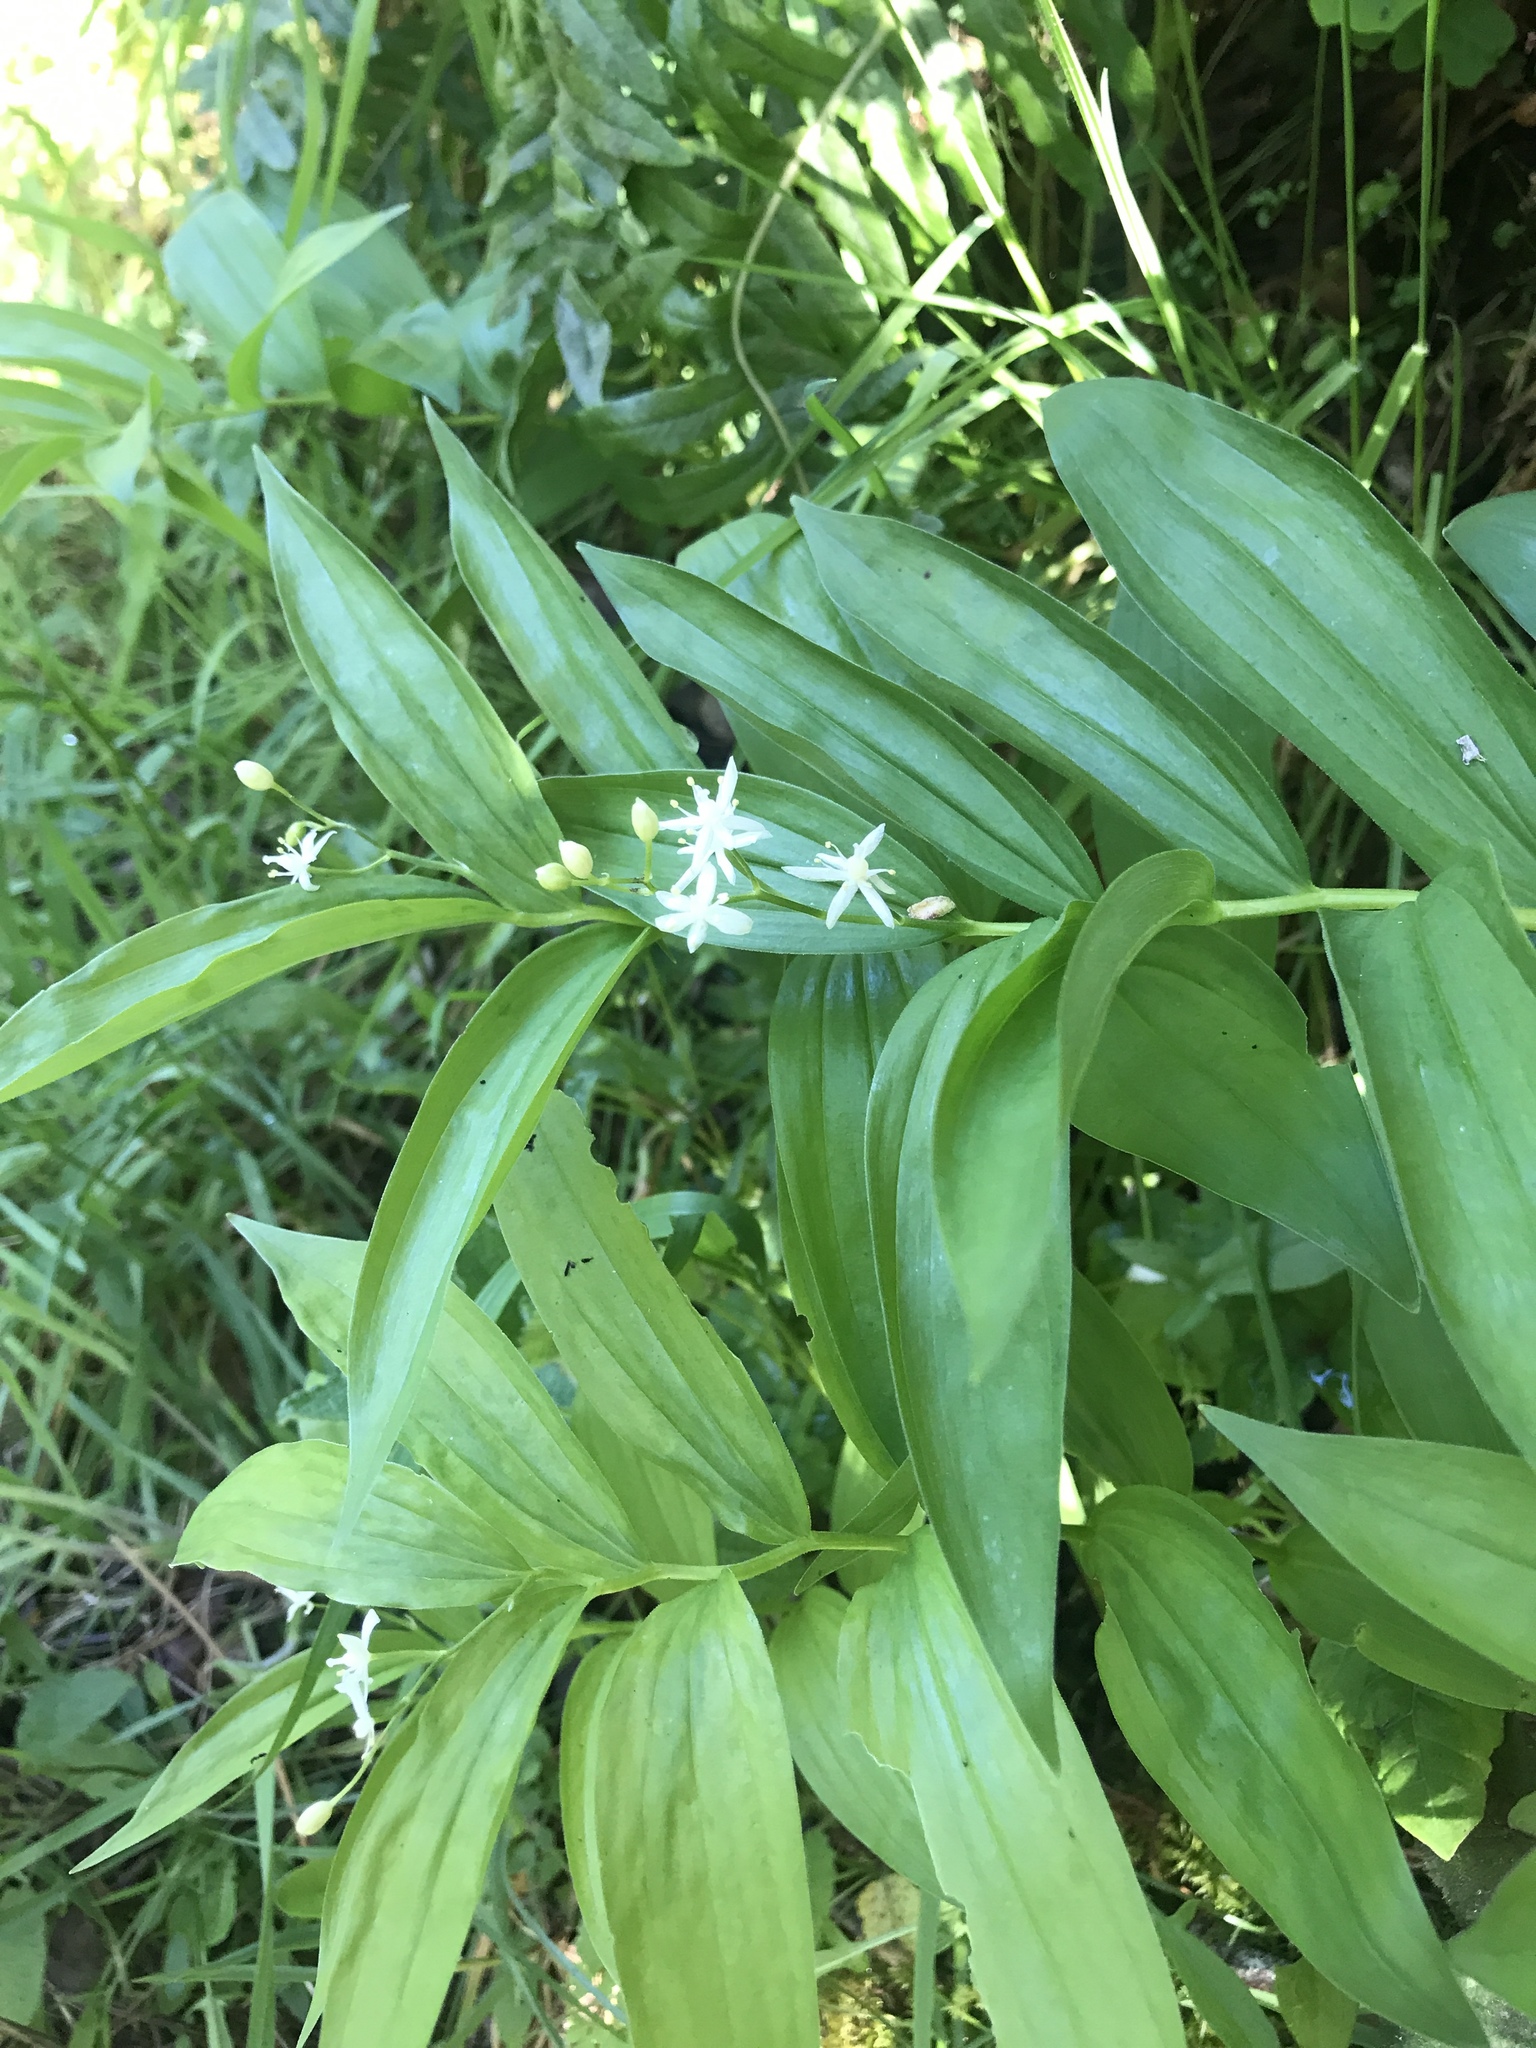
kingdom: Plantae
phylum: Tracheophyta
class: Liliopsida
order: Asparagales
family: Asparagaceae
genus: Maianthemum
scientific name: Maianthemum stellatum
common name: Little false solomon's seal
